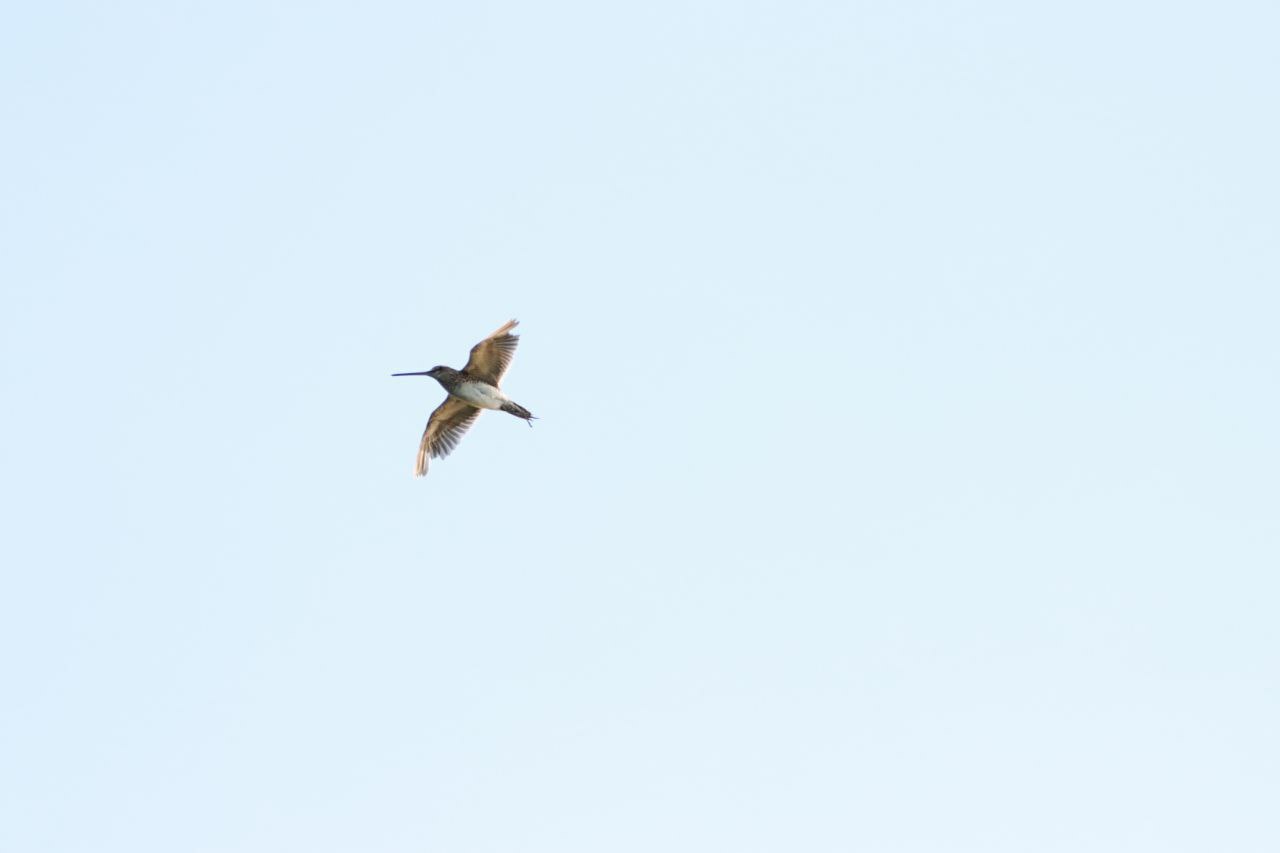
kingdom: Animalia
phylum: Chordata
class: Aves
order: Charadriiformes
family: Scolopacidae
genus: Gallinago
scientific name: Gallinago gallinago
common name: Common snipe
